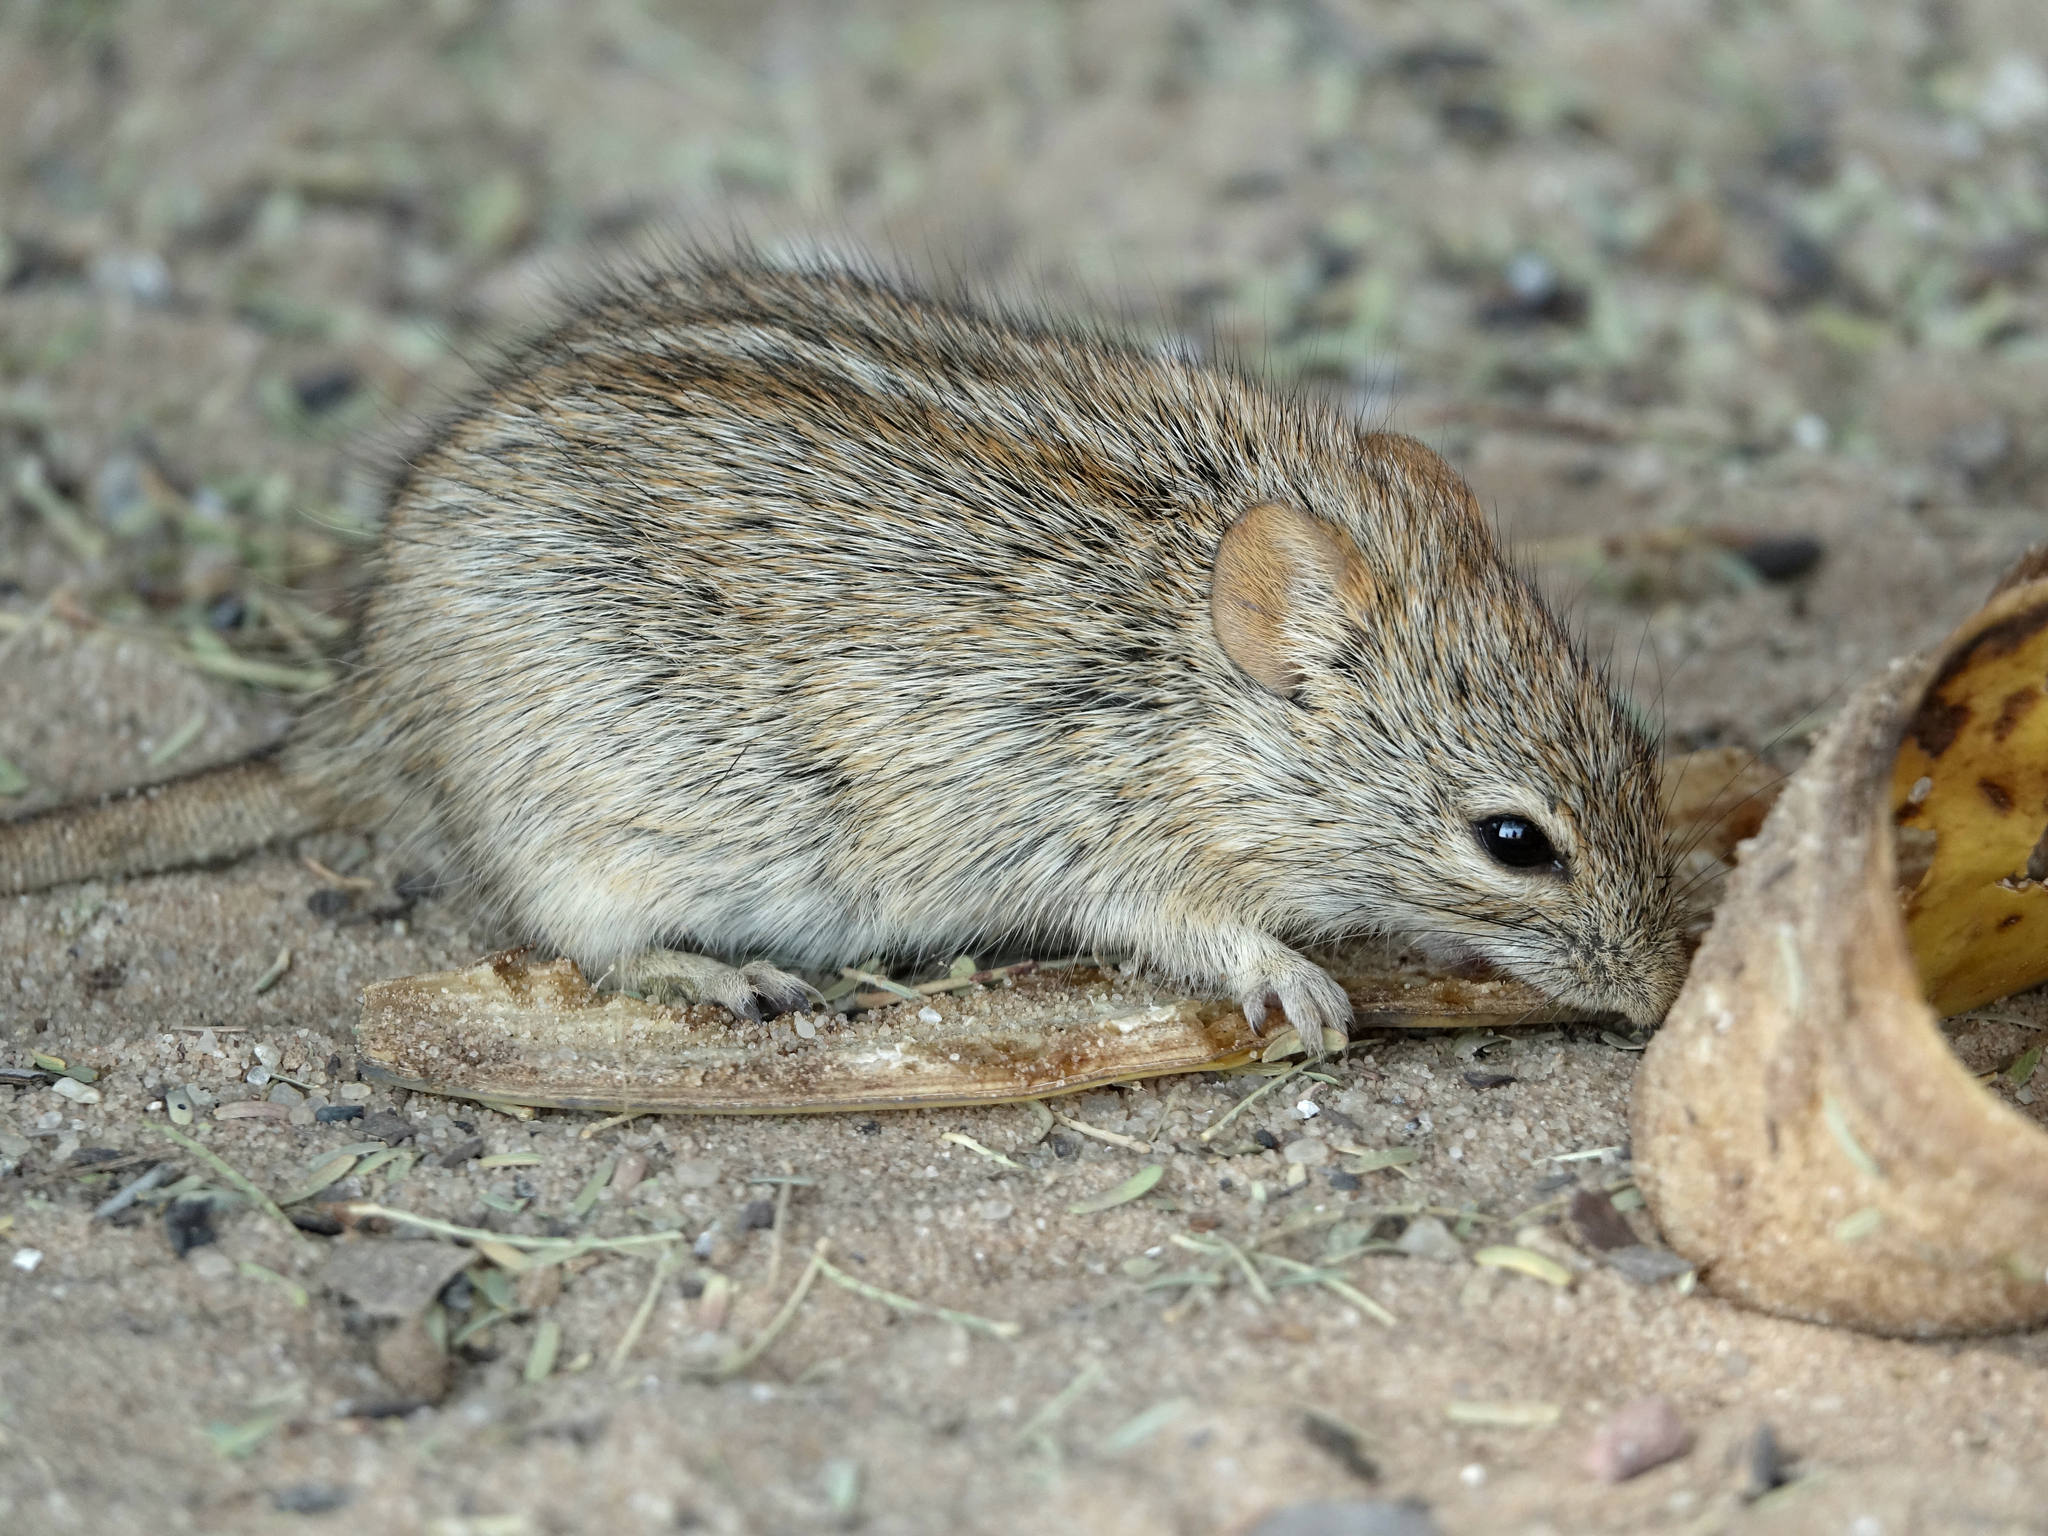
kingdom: Animalia
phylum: Chordata
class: Mammalia
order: Rodentia
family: Muridae
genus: Rhabdomys
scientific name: Rhabdomys pumilio
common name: Xeric four-striped grass rat
